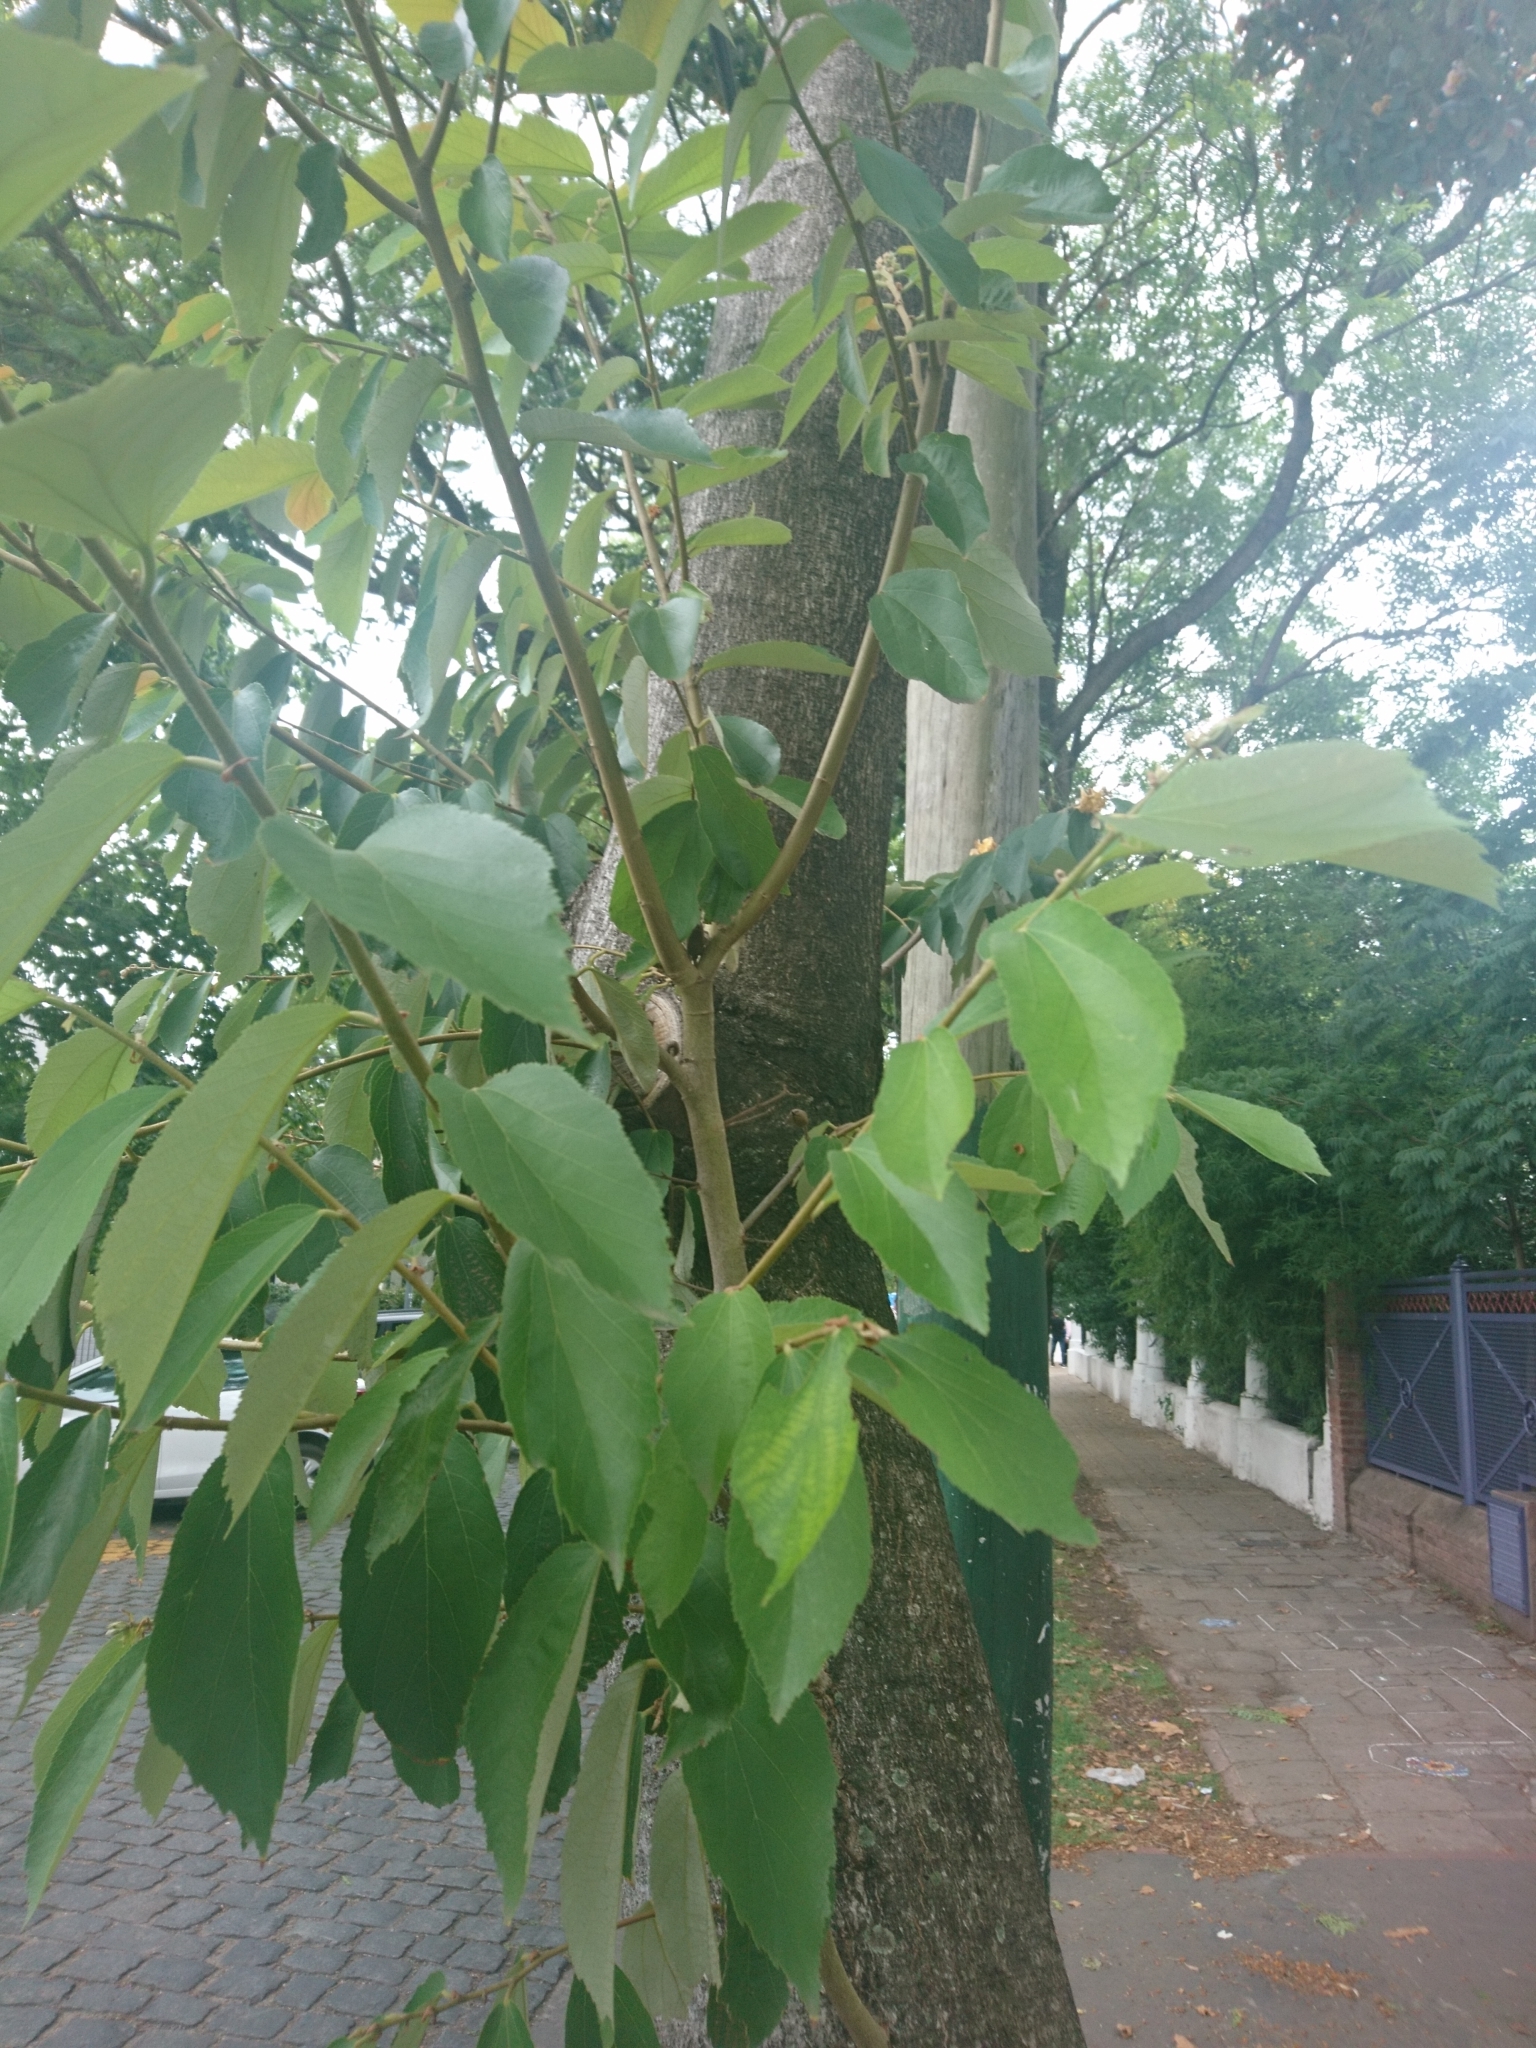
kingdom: Plantae
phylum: Tracheophyta
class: Magnoliopsida
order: Malvales
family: Malvaceae
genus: Luehea
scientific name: Luehea divaricata
